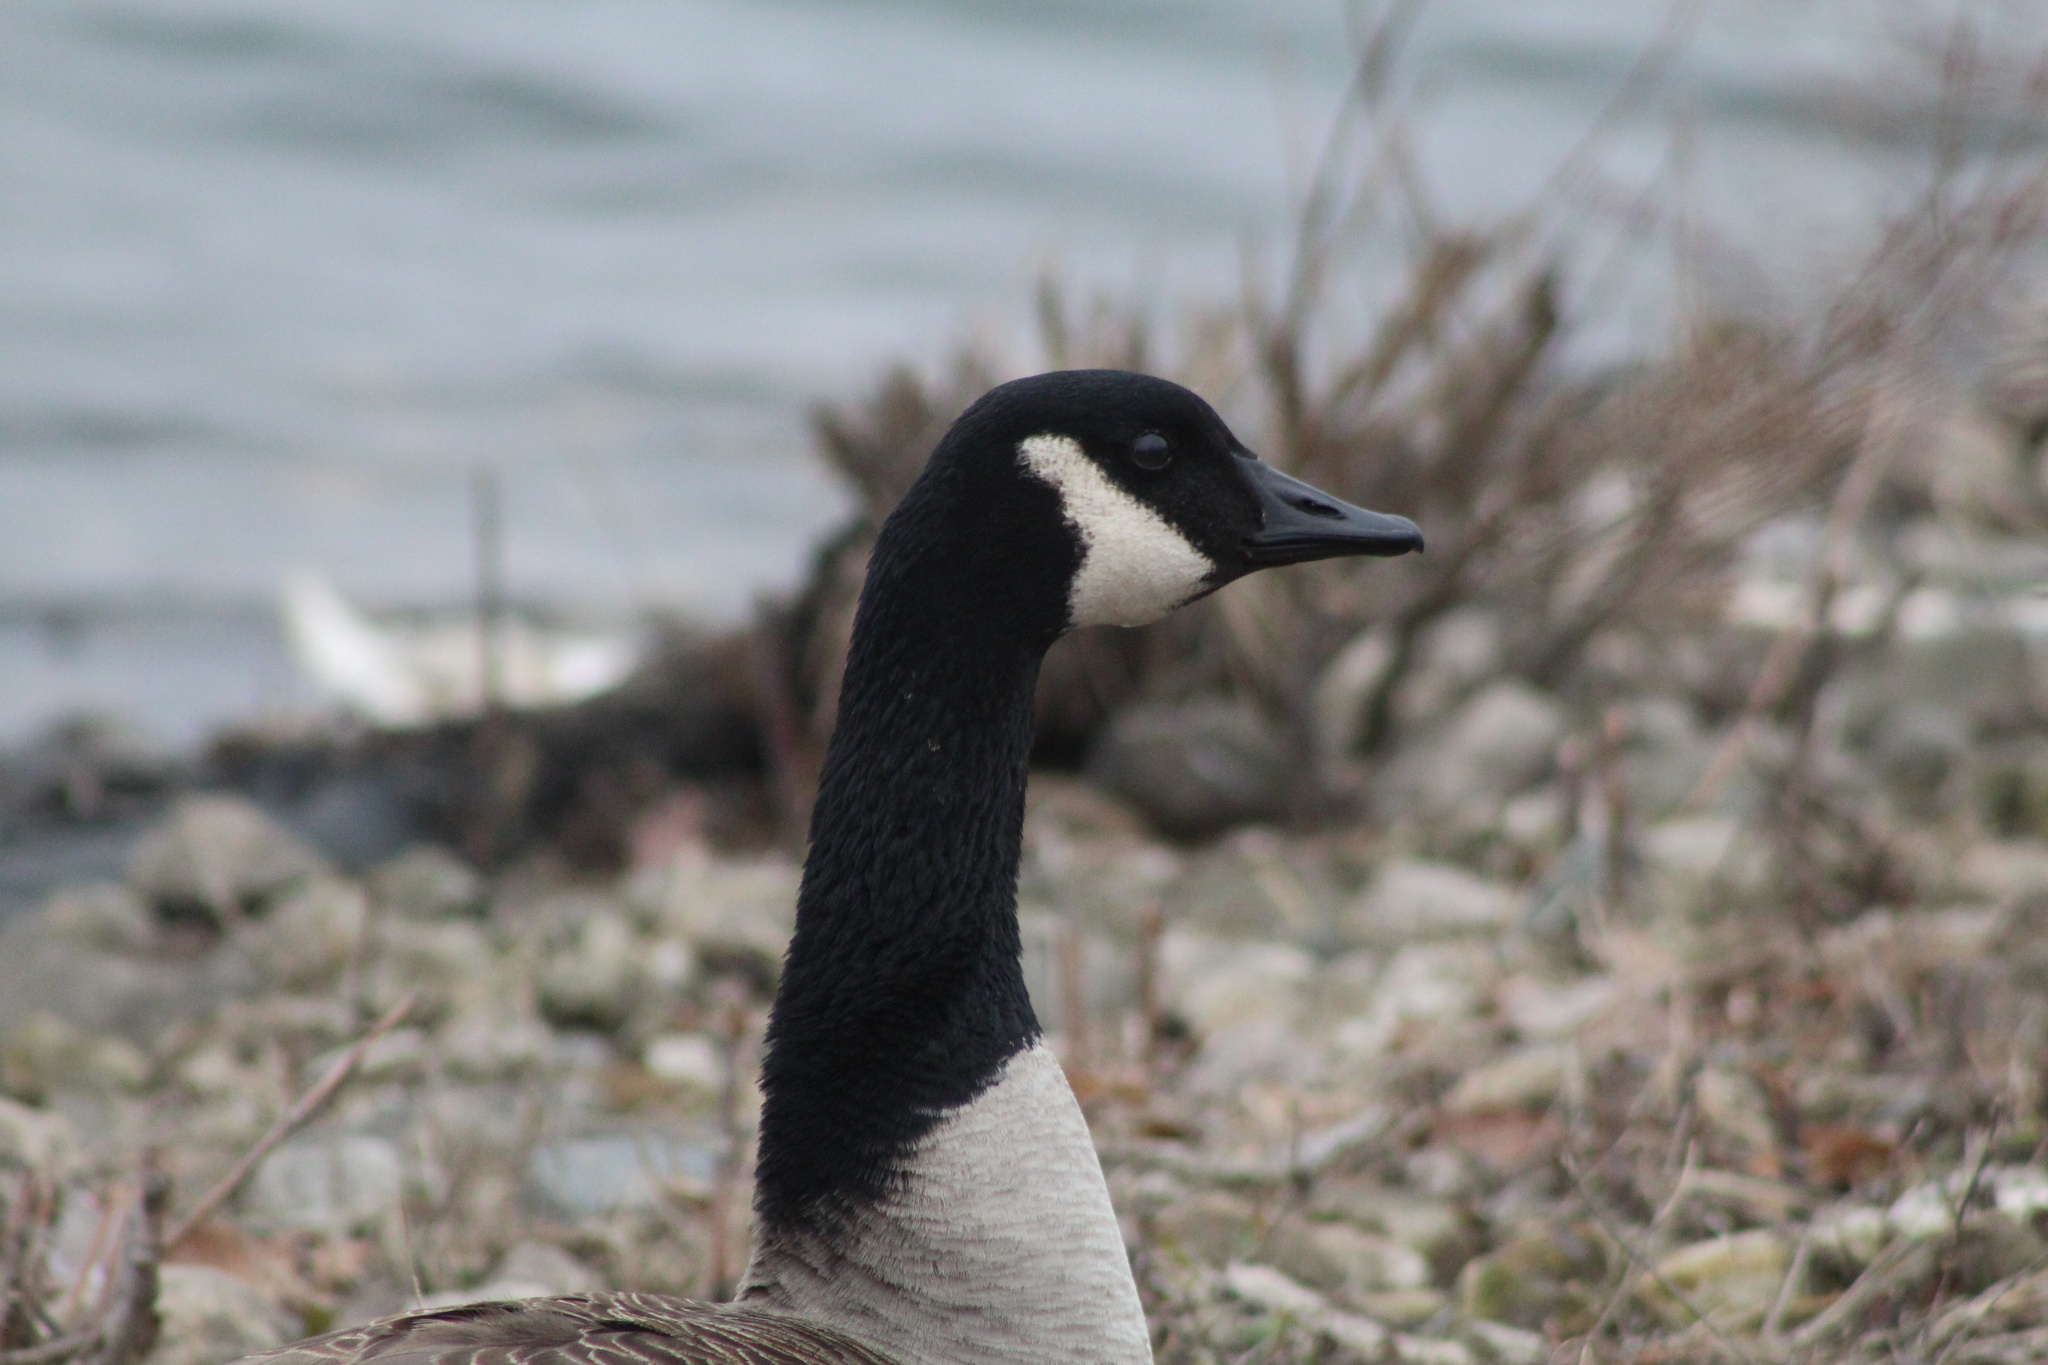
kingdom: Animalia
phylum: Chordata
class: Aves
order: Anseriformes
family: Anatidae
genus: Branta
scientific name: Branta canadensis
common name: Canada goose
